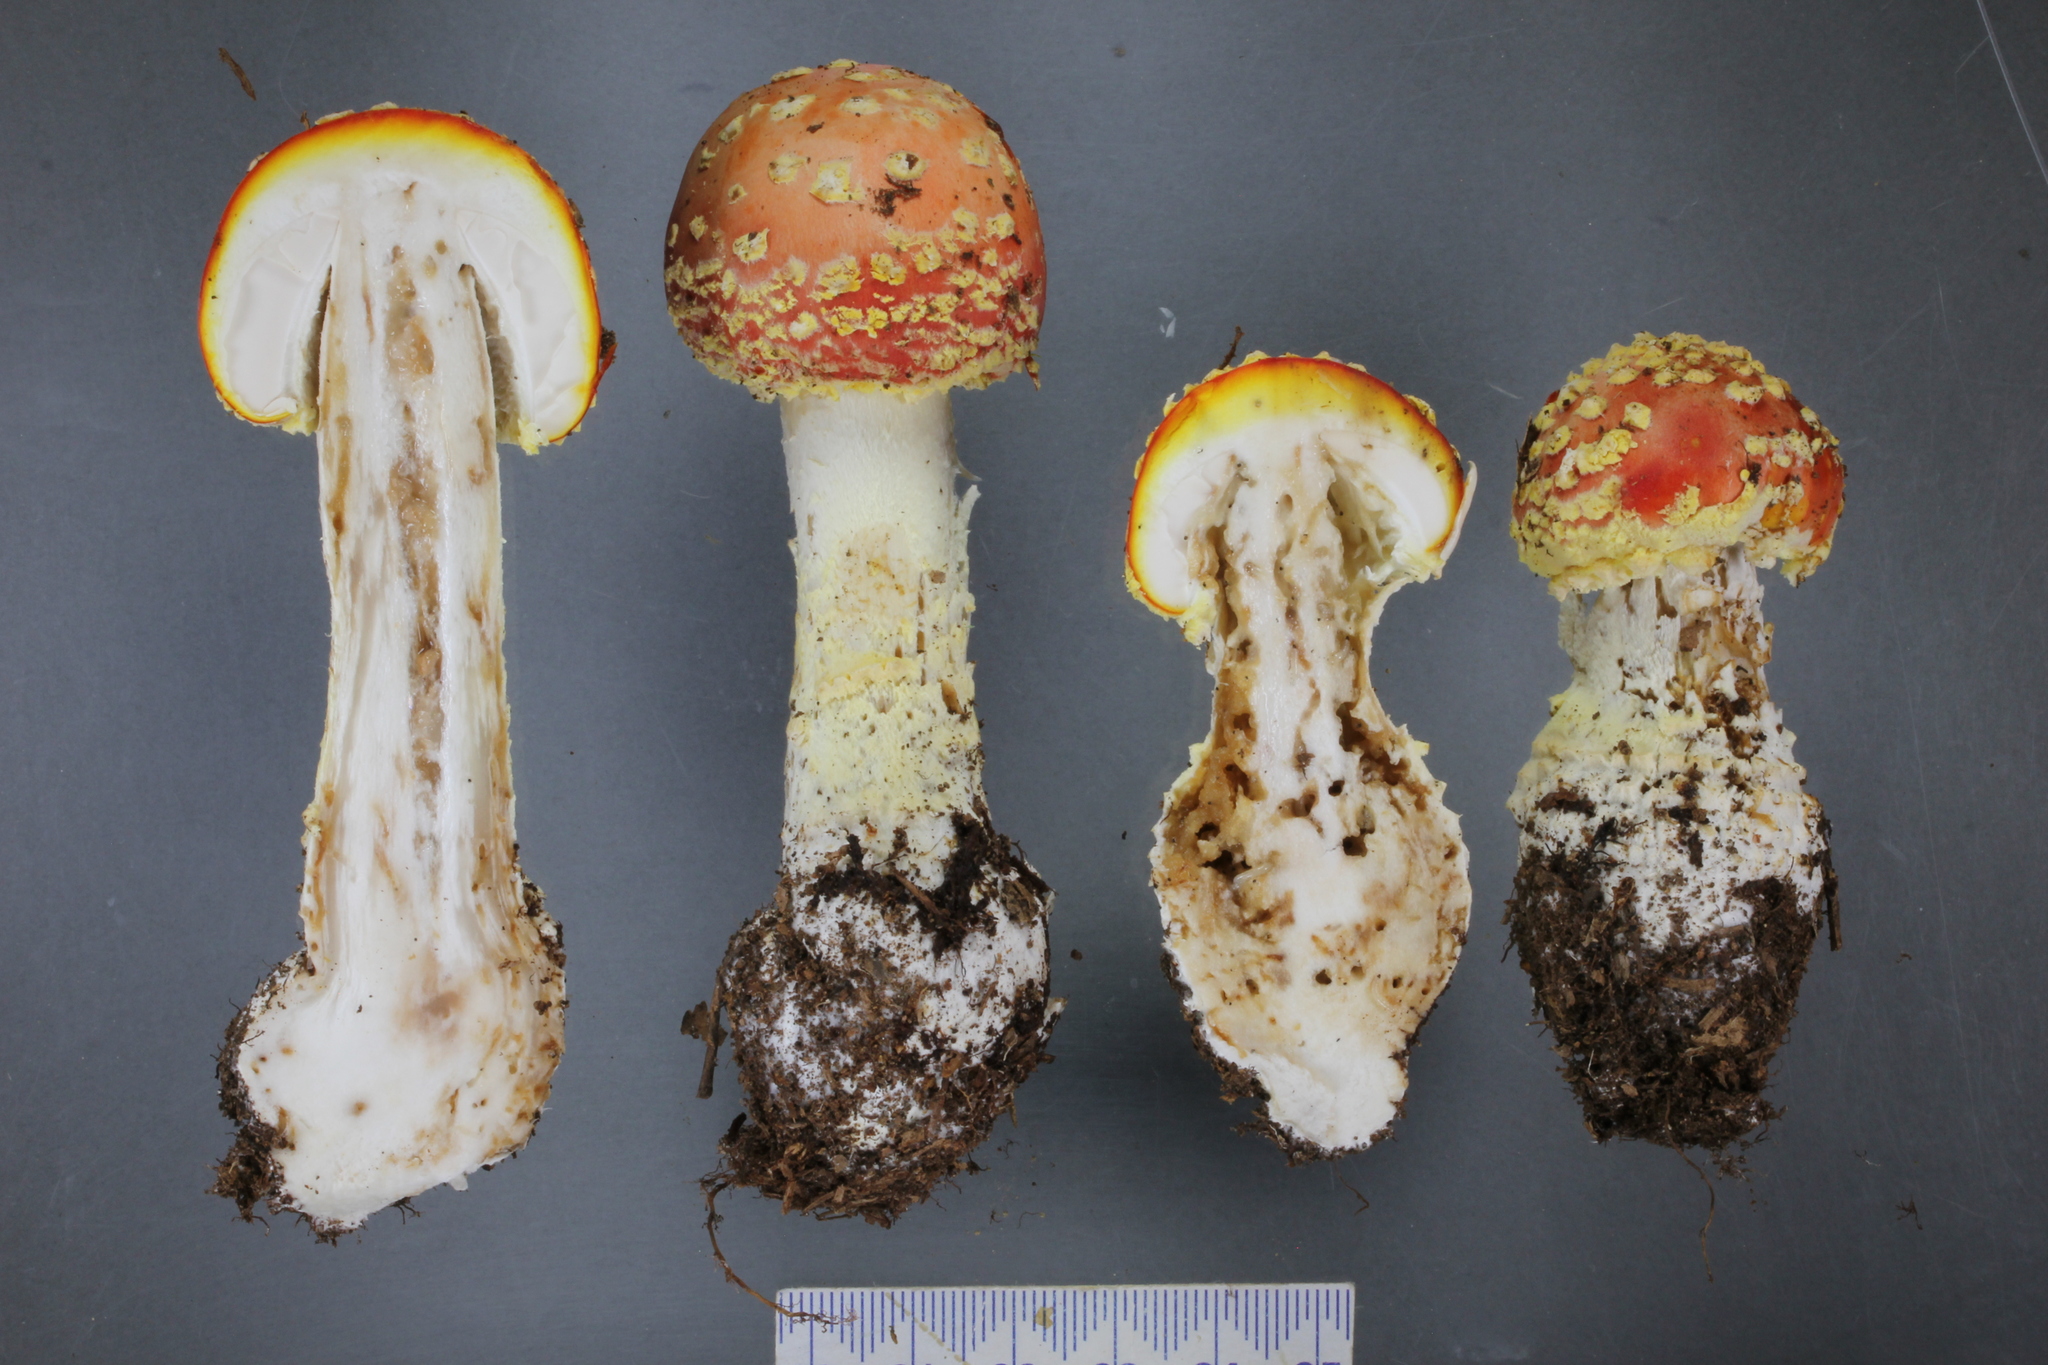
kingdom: Fungi
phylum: Basidiomycota
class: Agaricomycetes
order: Agaricales
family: Amanitaceae
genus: Amanita
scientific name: Amanita muscaria
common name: Fly agaric
